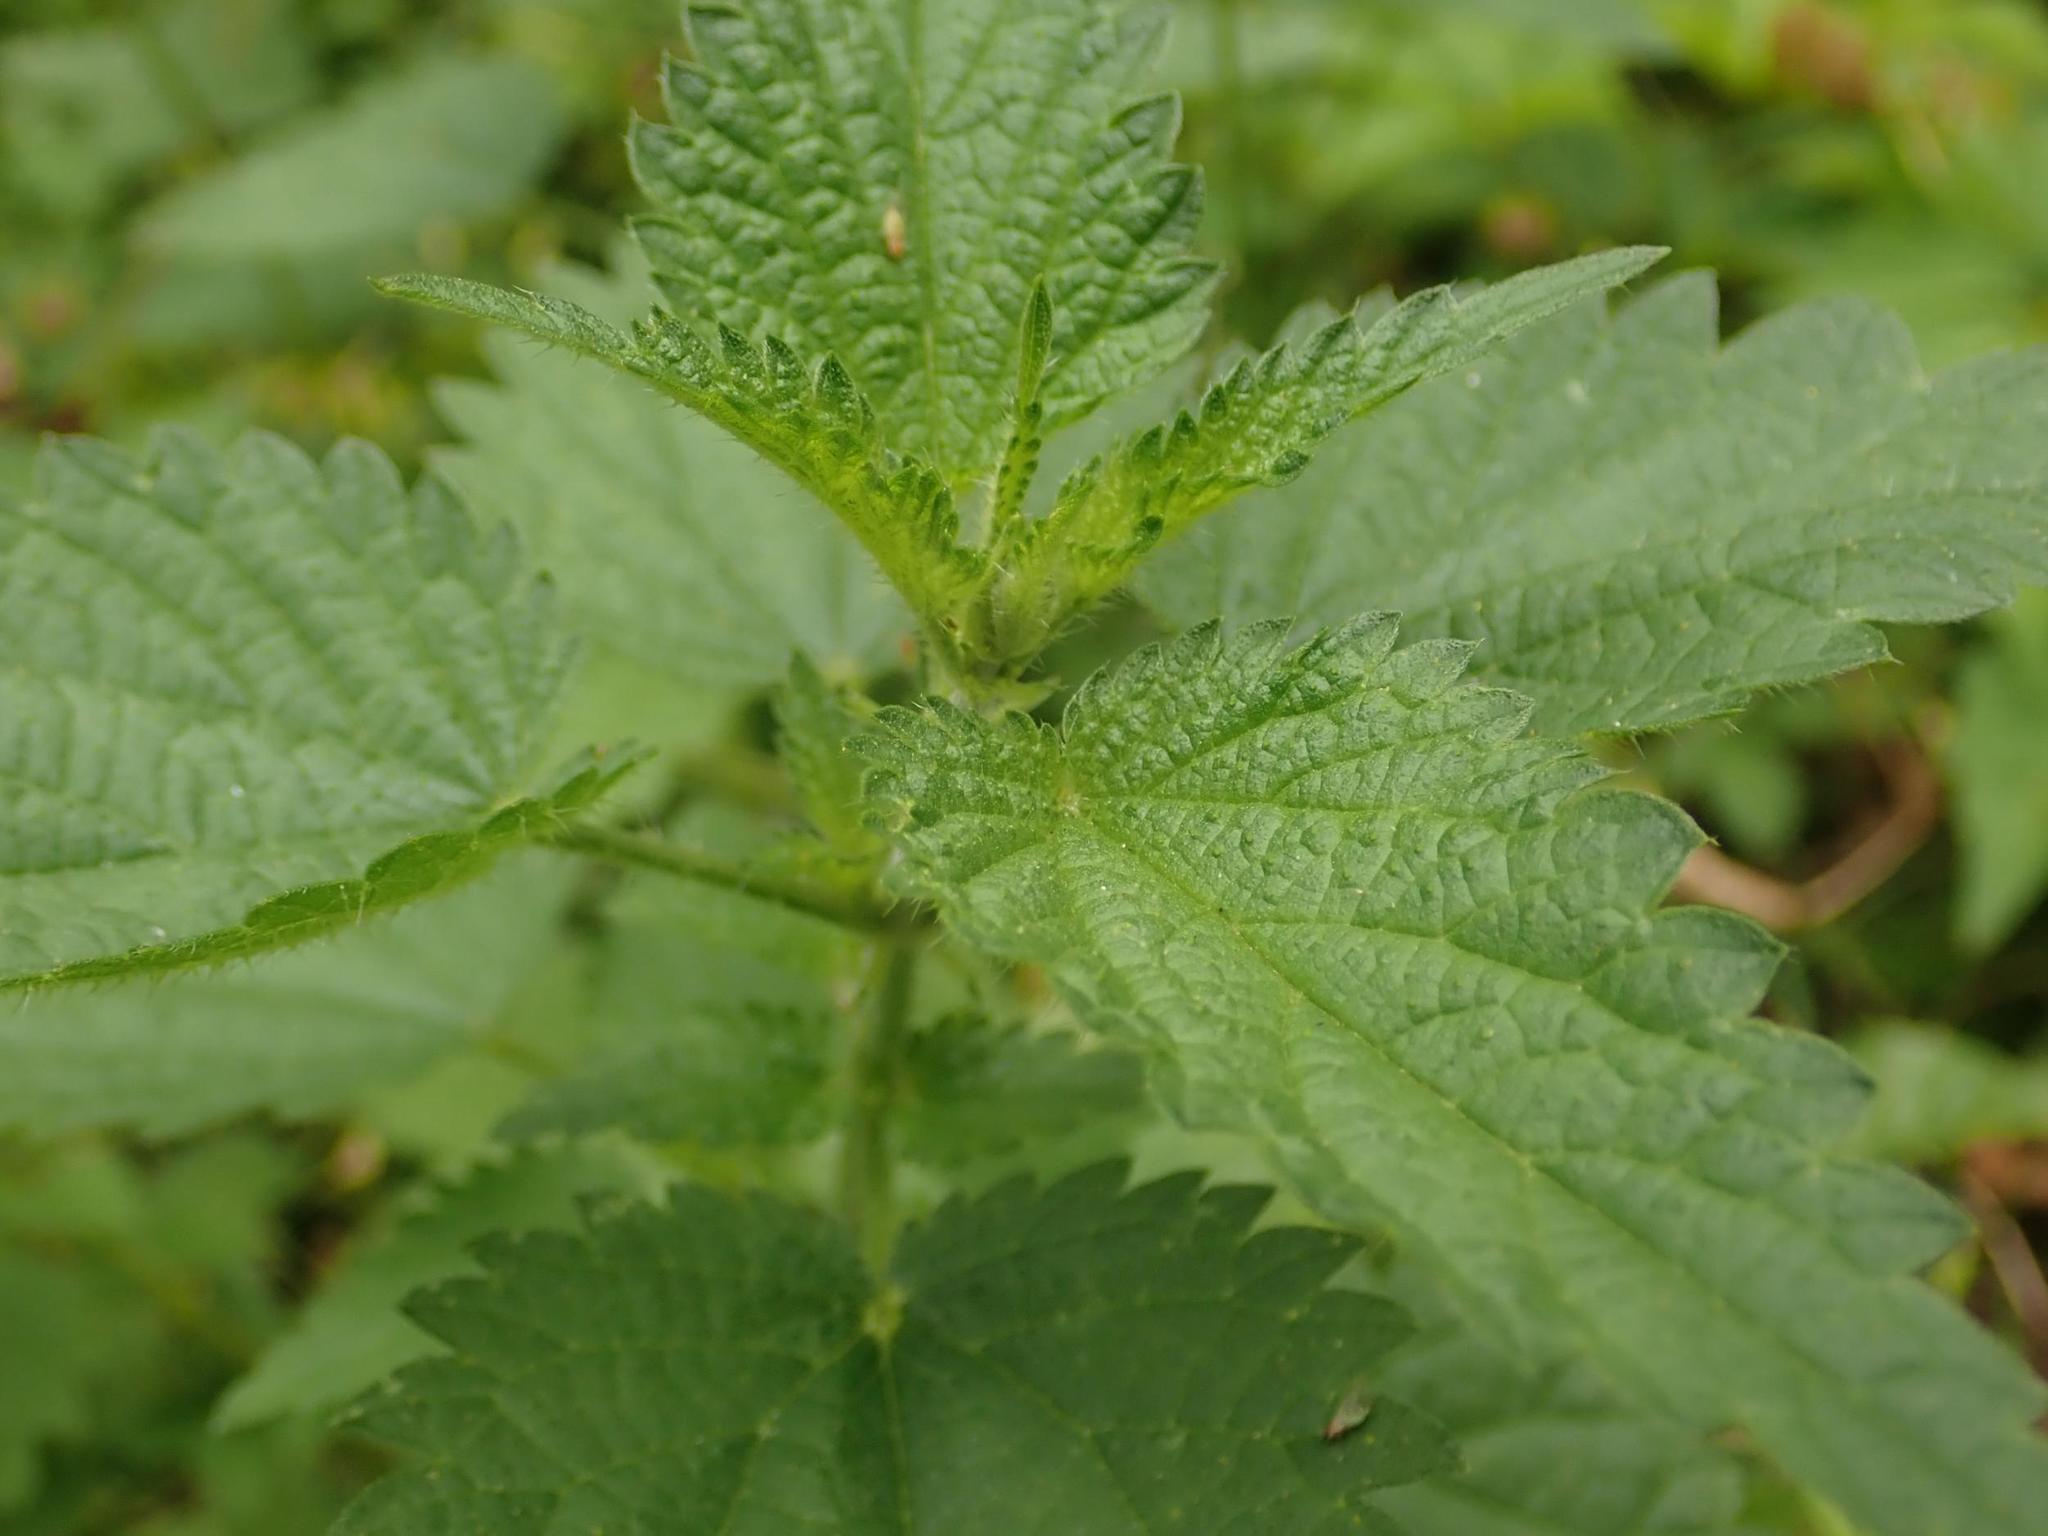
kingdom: Plantae
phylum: Tracheophyta
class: Magnoliopsida
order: Rosales
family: Urticaceae
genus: Urtica
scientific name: Urtica dioica
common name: Common nettle
